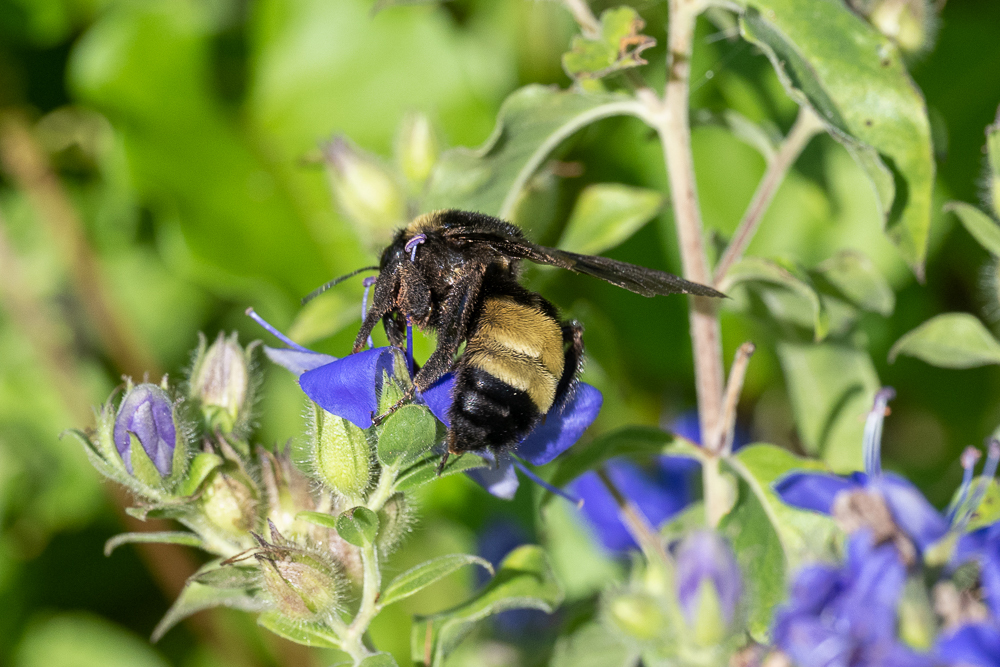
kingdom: Animalia
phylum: Arthropoda
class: Insecta
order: Hymenoptera
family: Apidae
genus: Bombus
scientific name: Bombus
